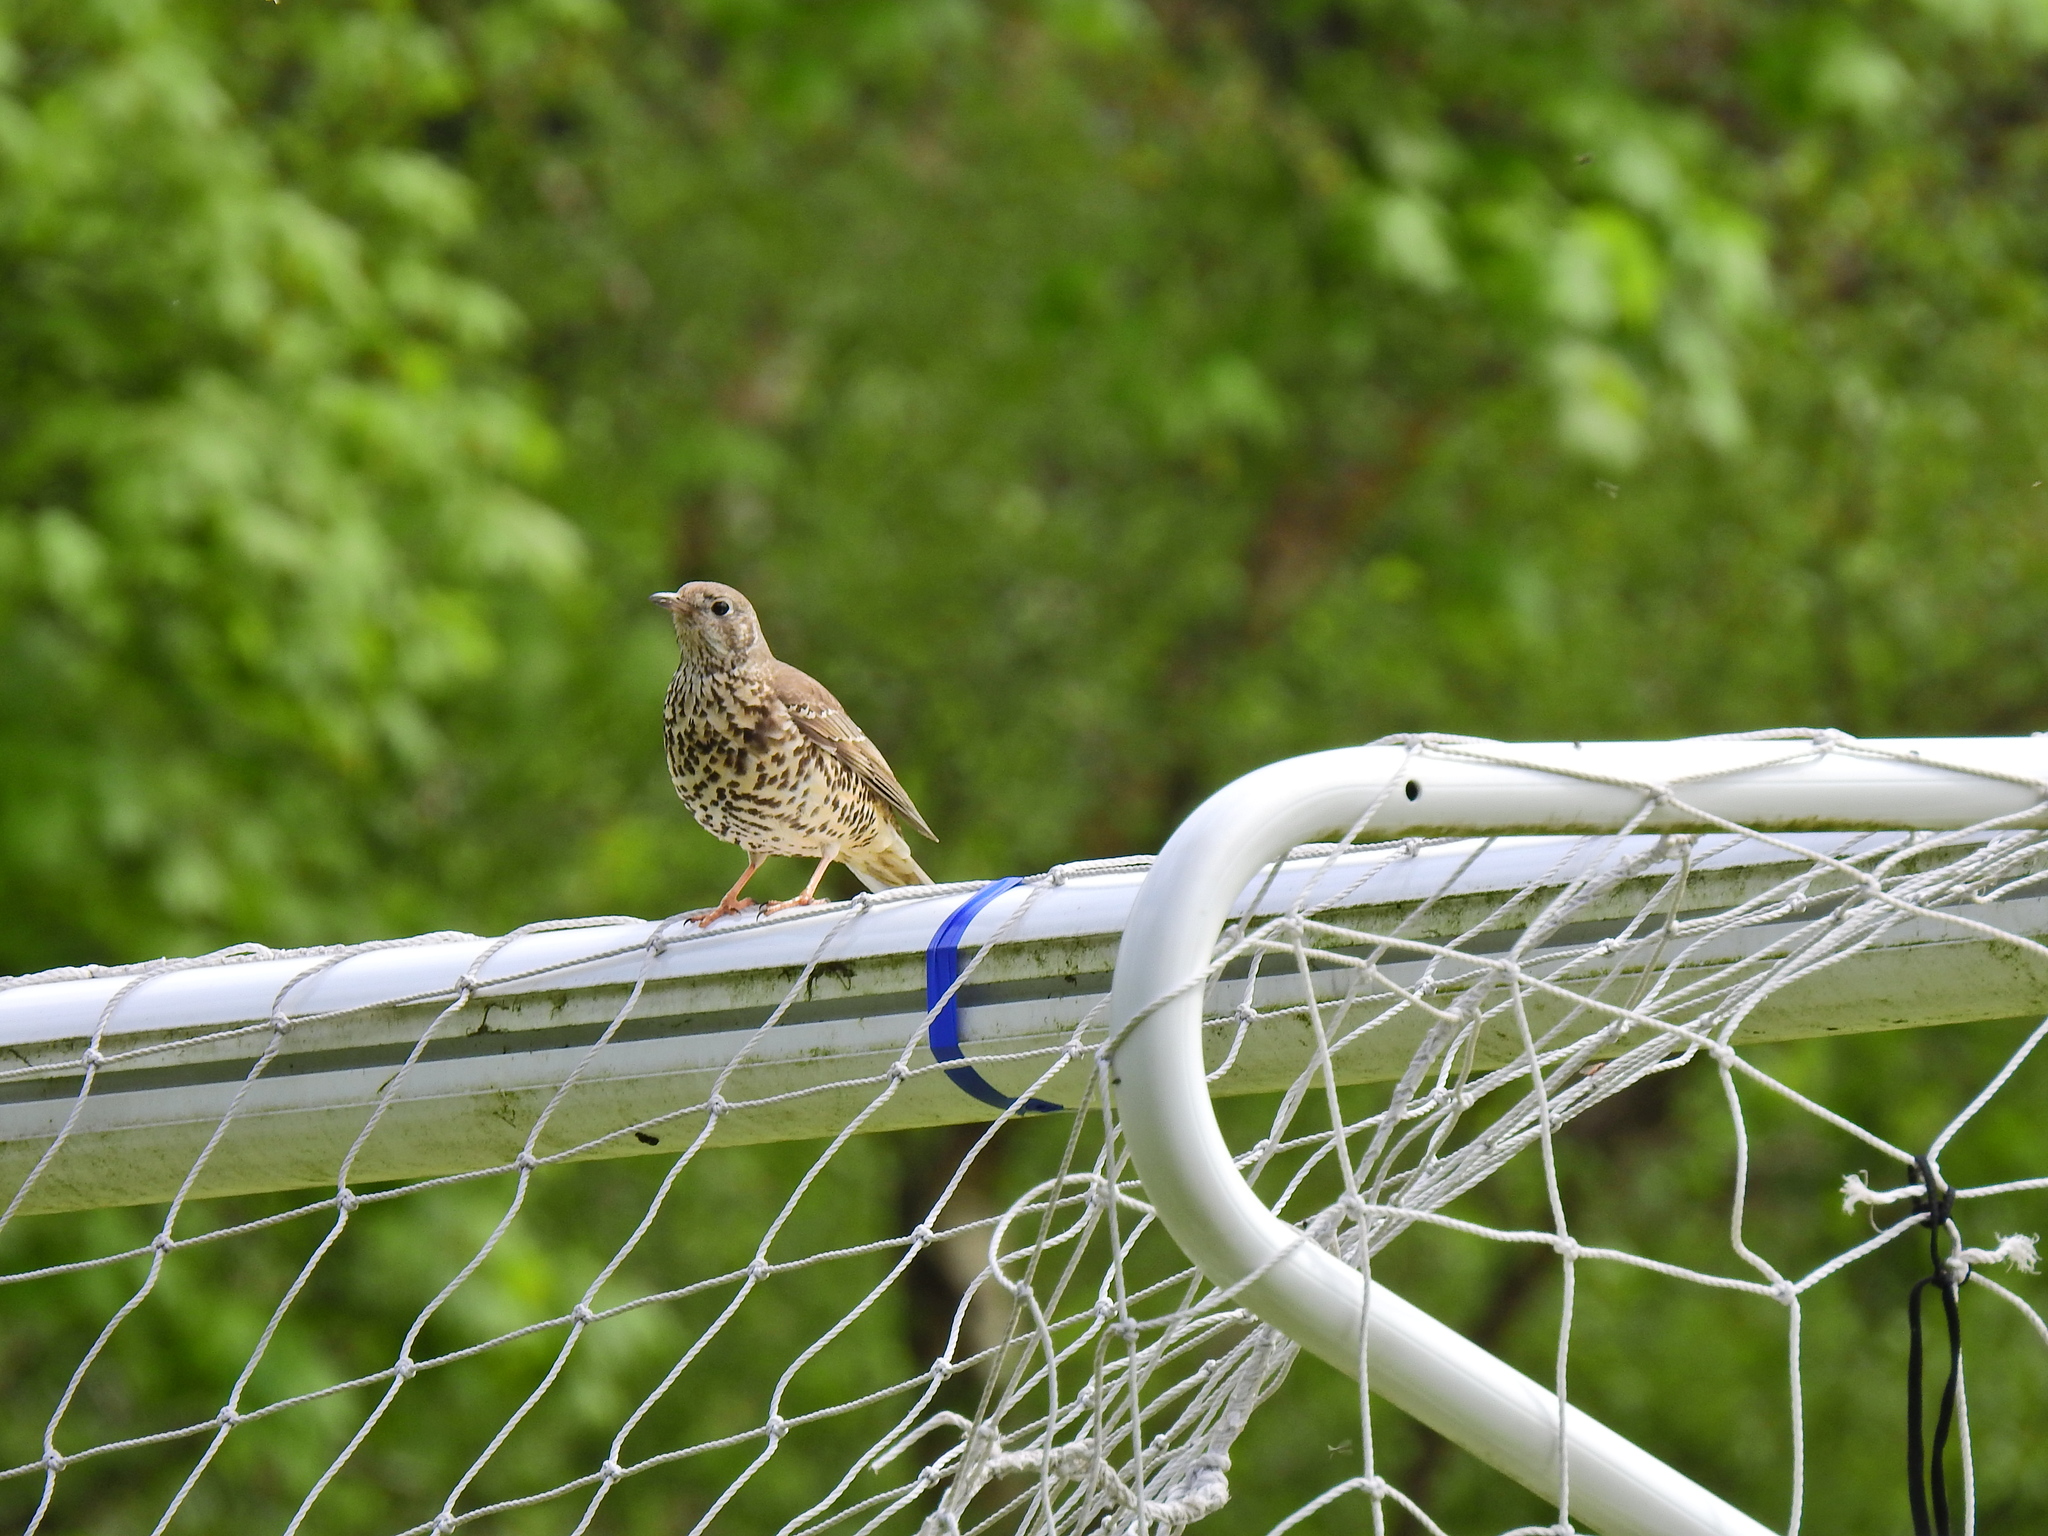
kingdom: Animalia
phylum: Chordata
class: Aves
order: Passeriformes
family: Turdidae
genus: Turdus
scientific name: Turdus philomelos
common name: Song thrush
